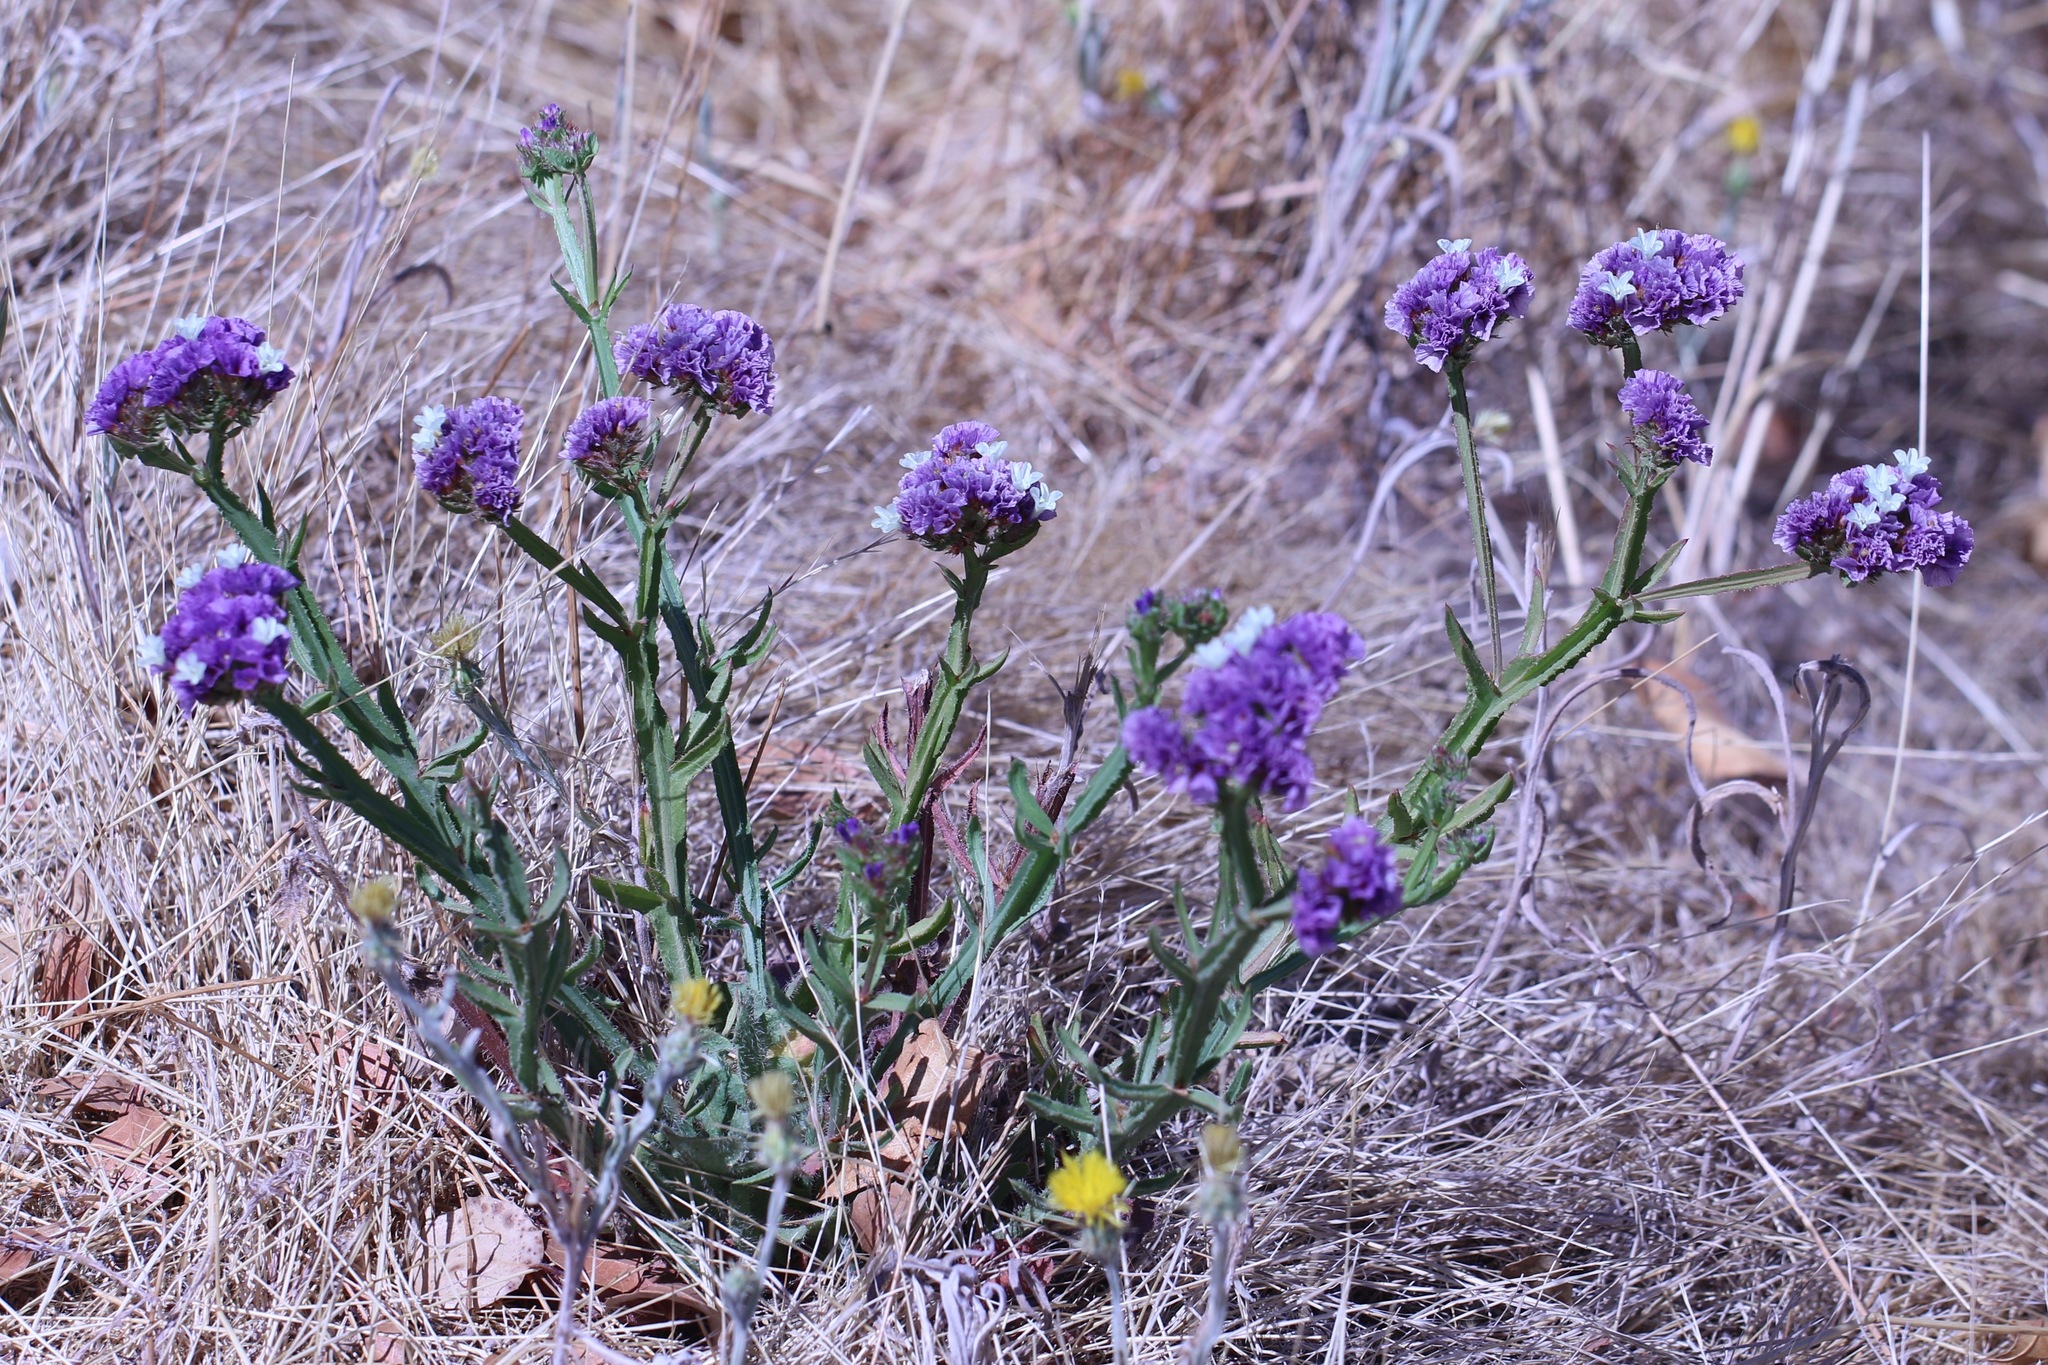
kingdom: Plantae
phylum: Tracheophyta
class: Magnoliopsida
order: Caryophyllales
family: Plumbaginaceae
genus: Limonium
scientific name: Limonium sinuatum
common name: Statice
